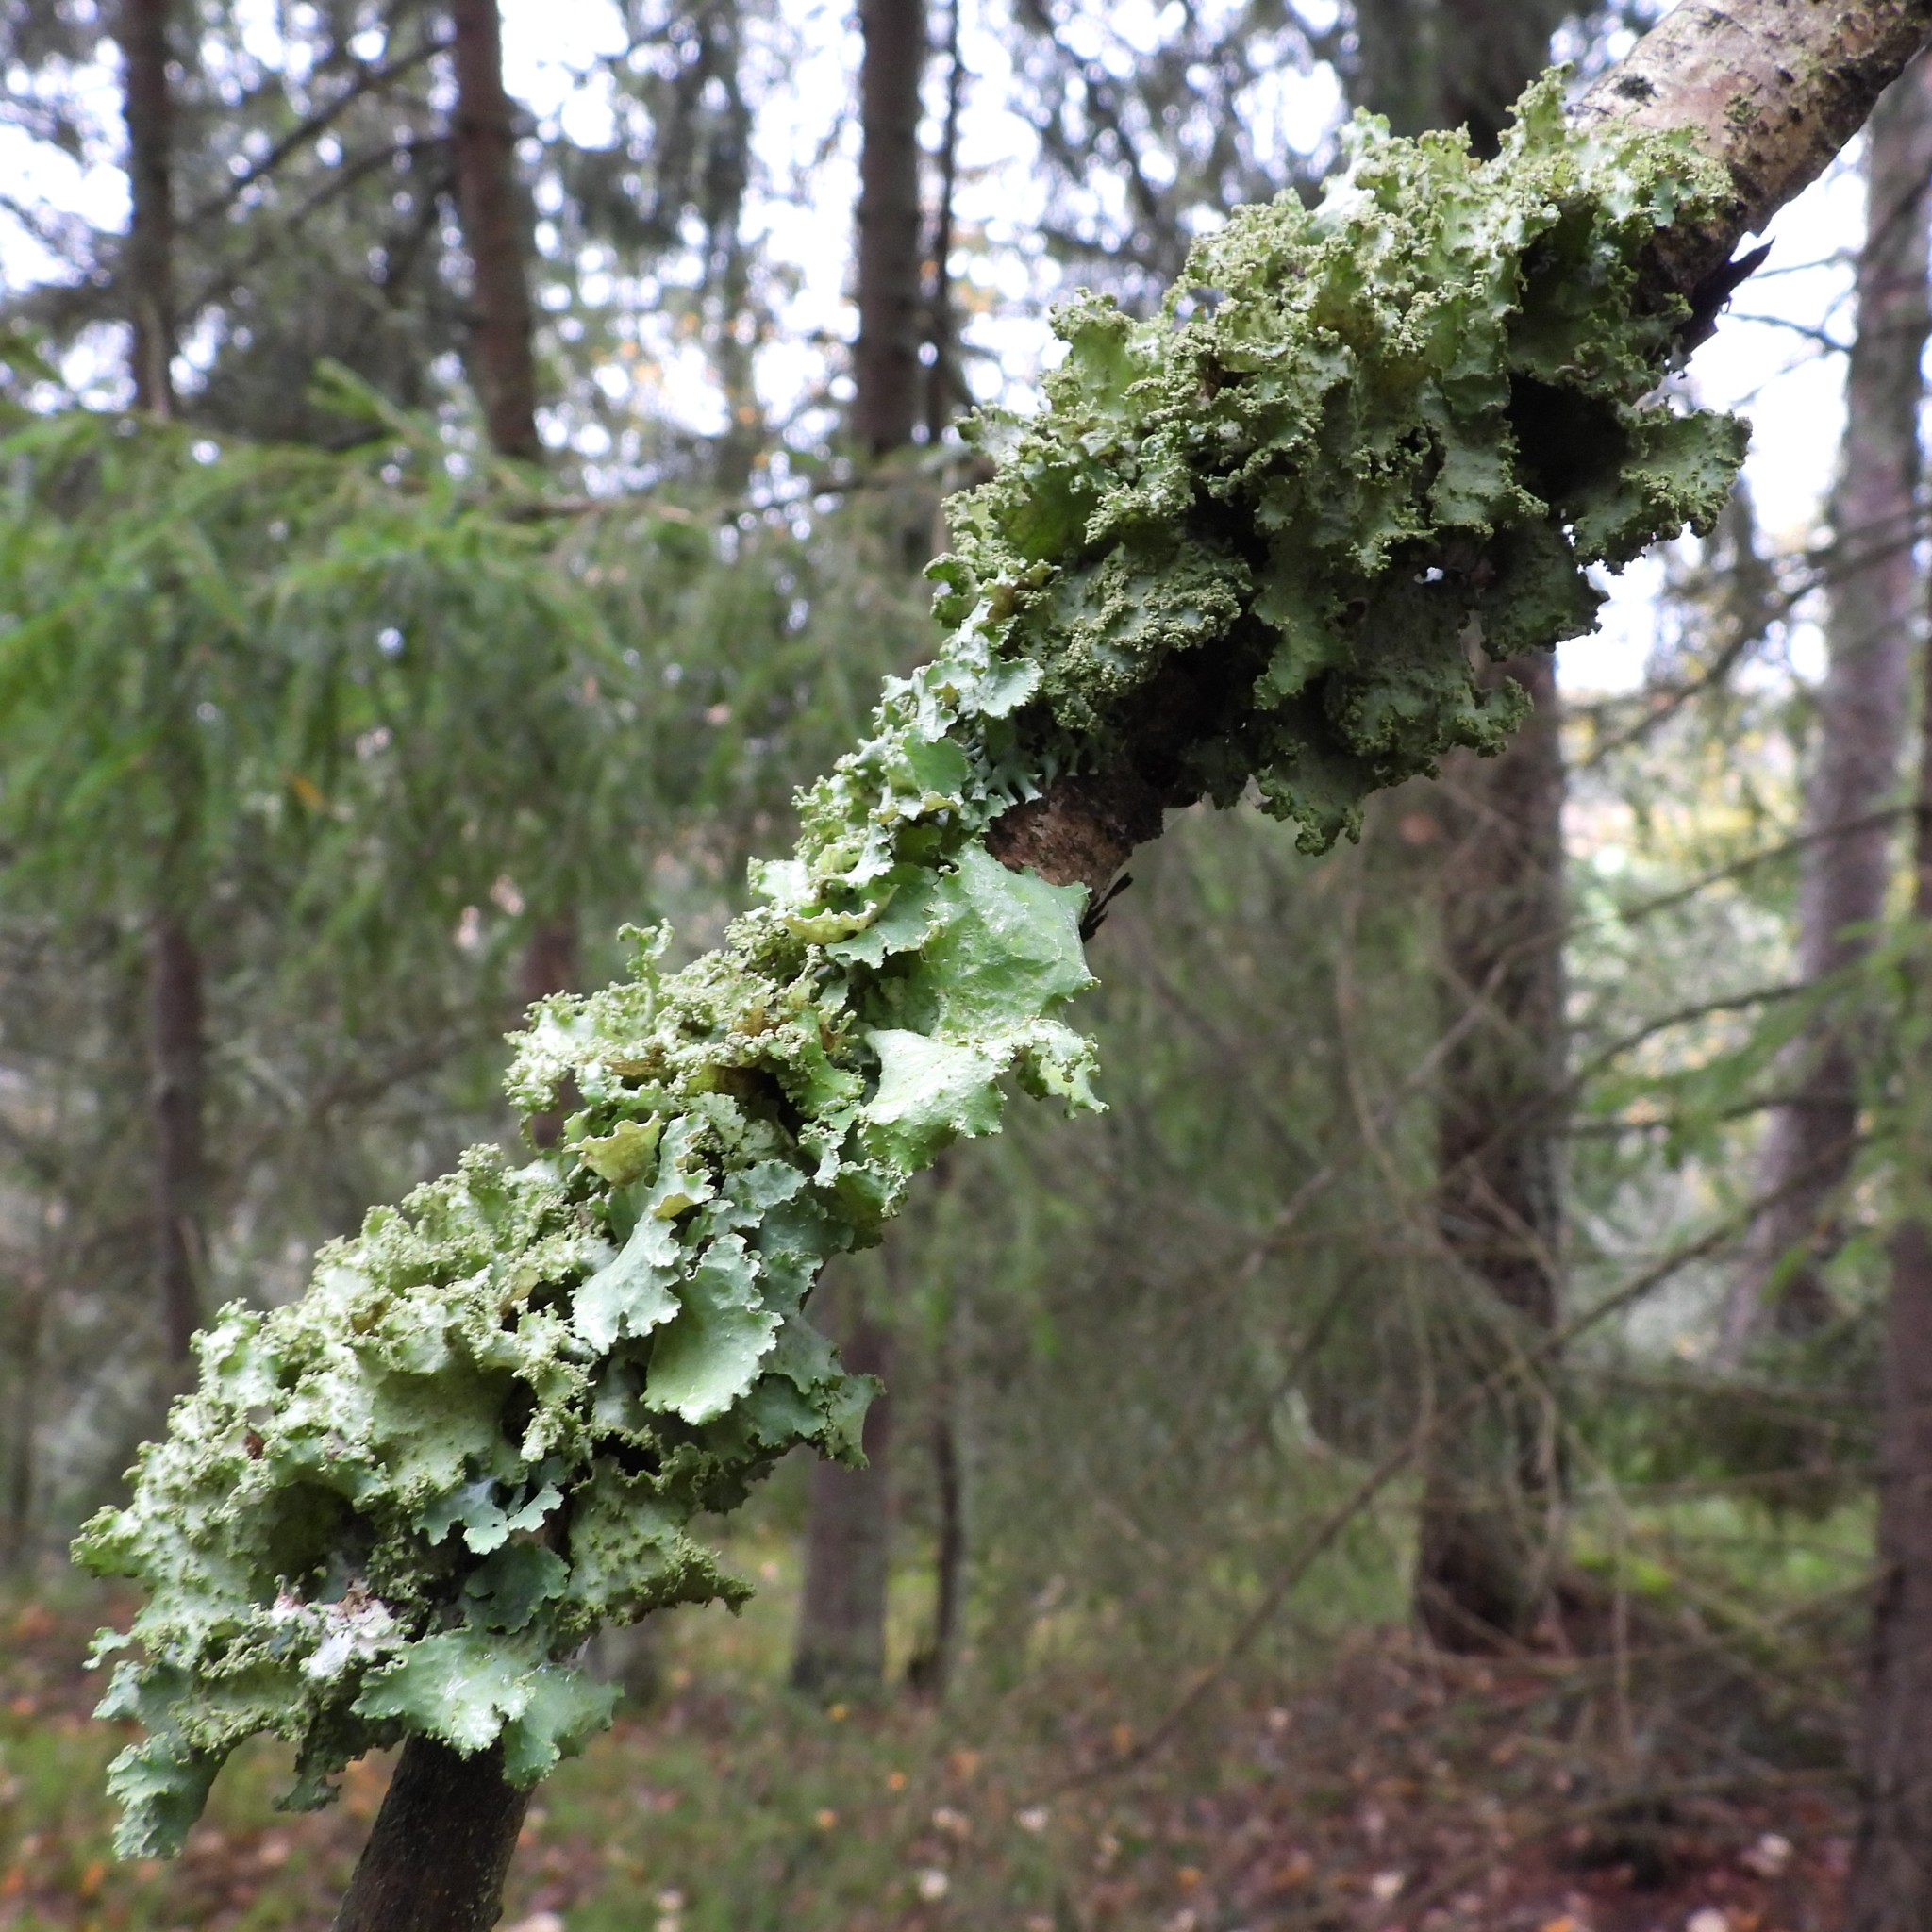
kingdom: Fungi
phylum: Ascomycota
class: Lecanoromycetes
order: Lecanorales
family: Parmeliaceae
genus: Platismatia
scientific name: Platismatia glauca
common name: Varied rag lichen
